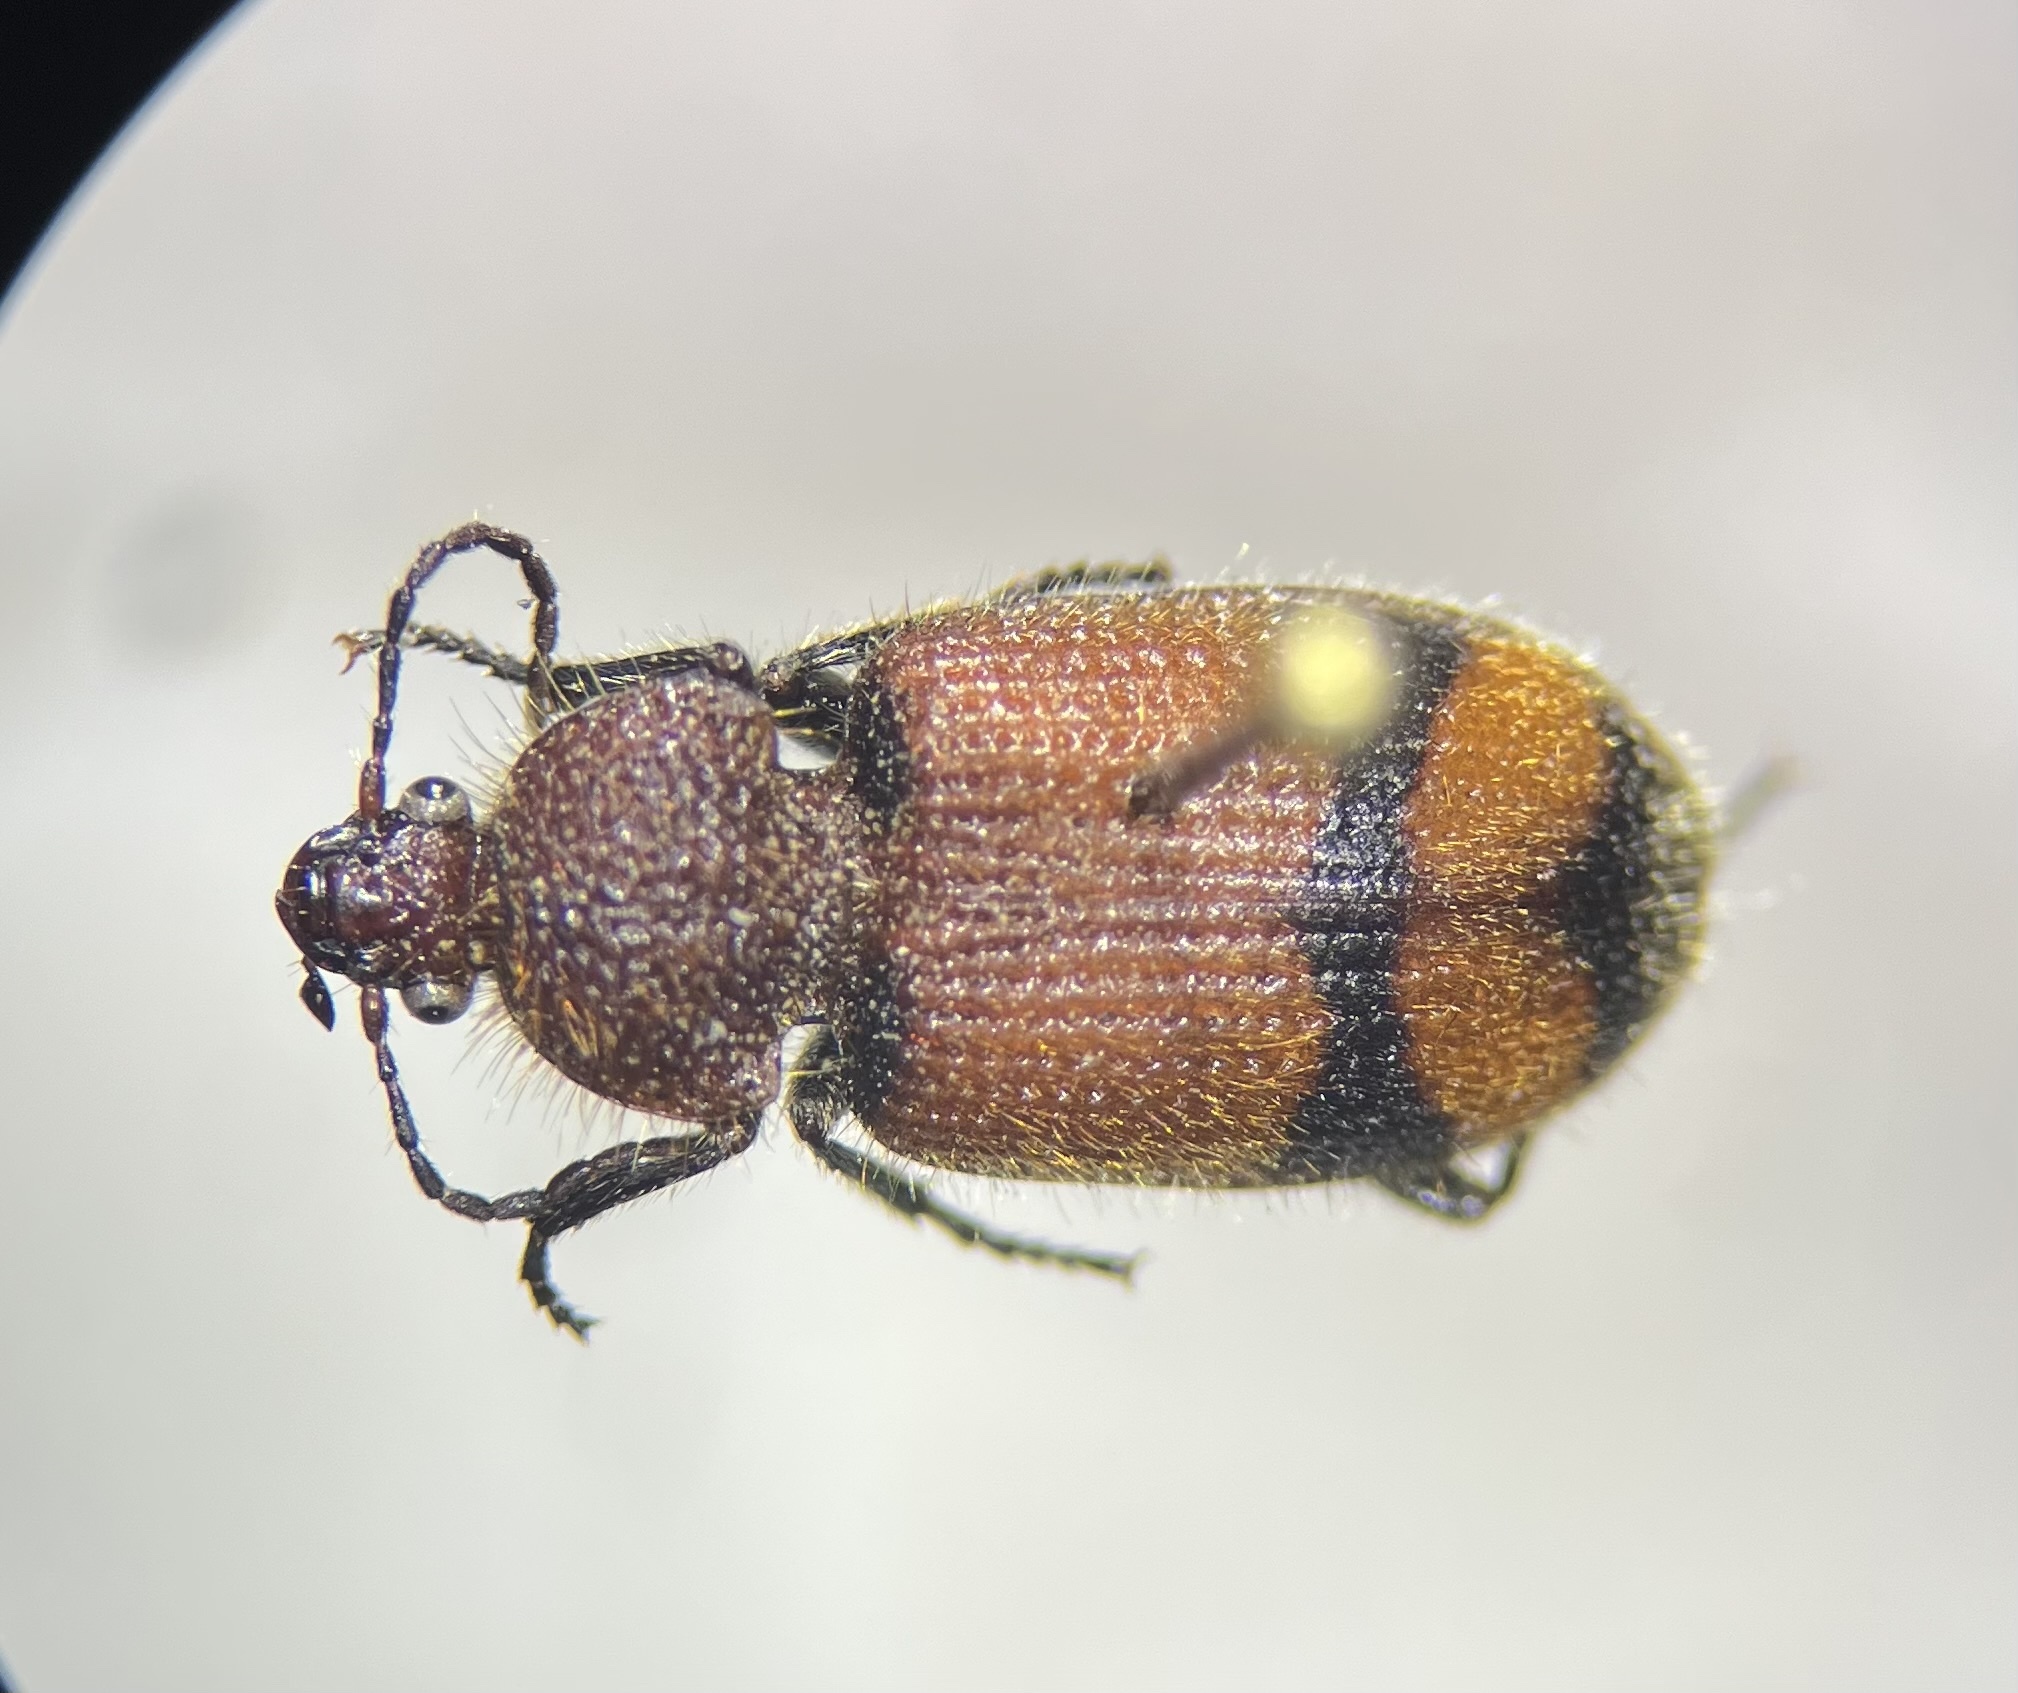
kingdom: Animalia
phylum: Arthropoda
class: Insecta
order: Coleoptera
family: Carabidae
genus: Panagaeus
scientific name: Panagaeus fasciatus
